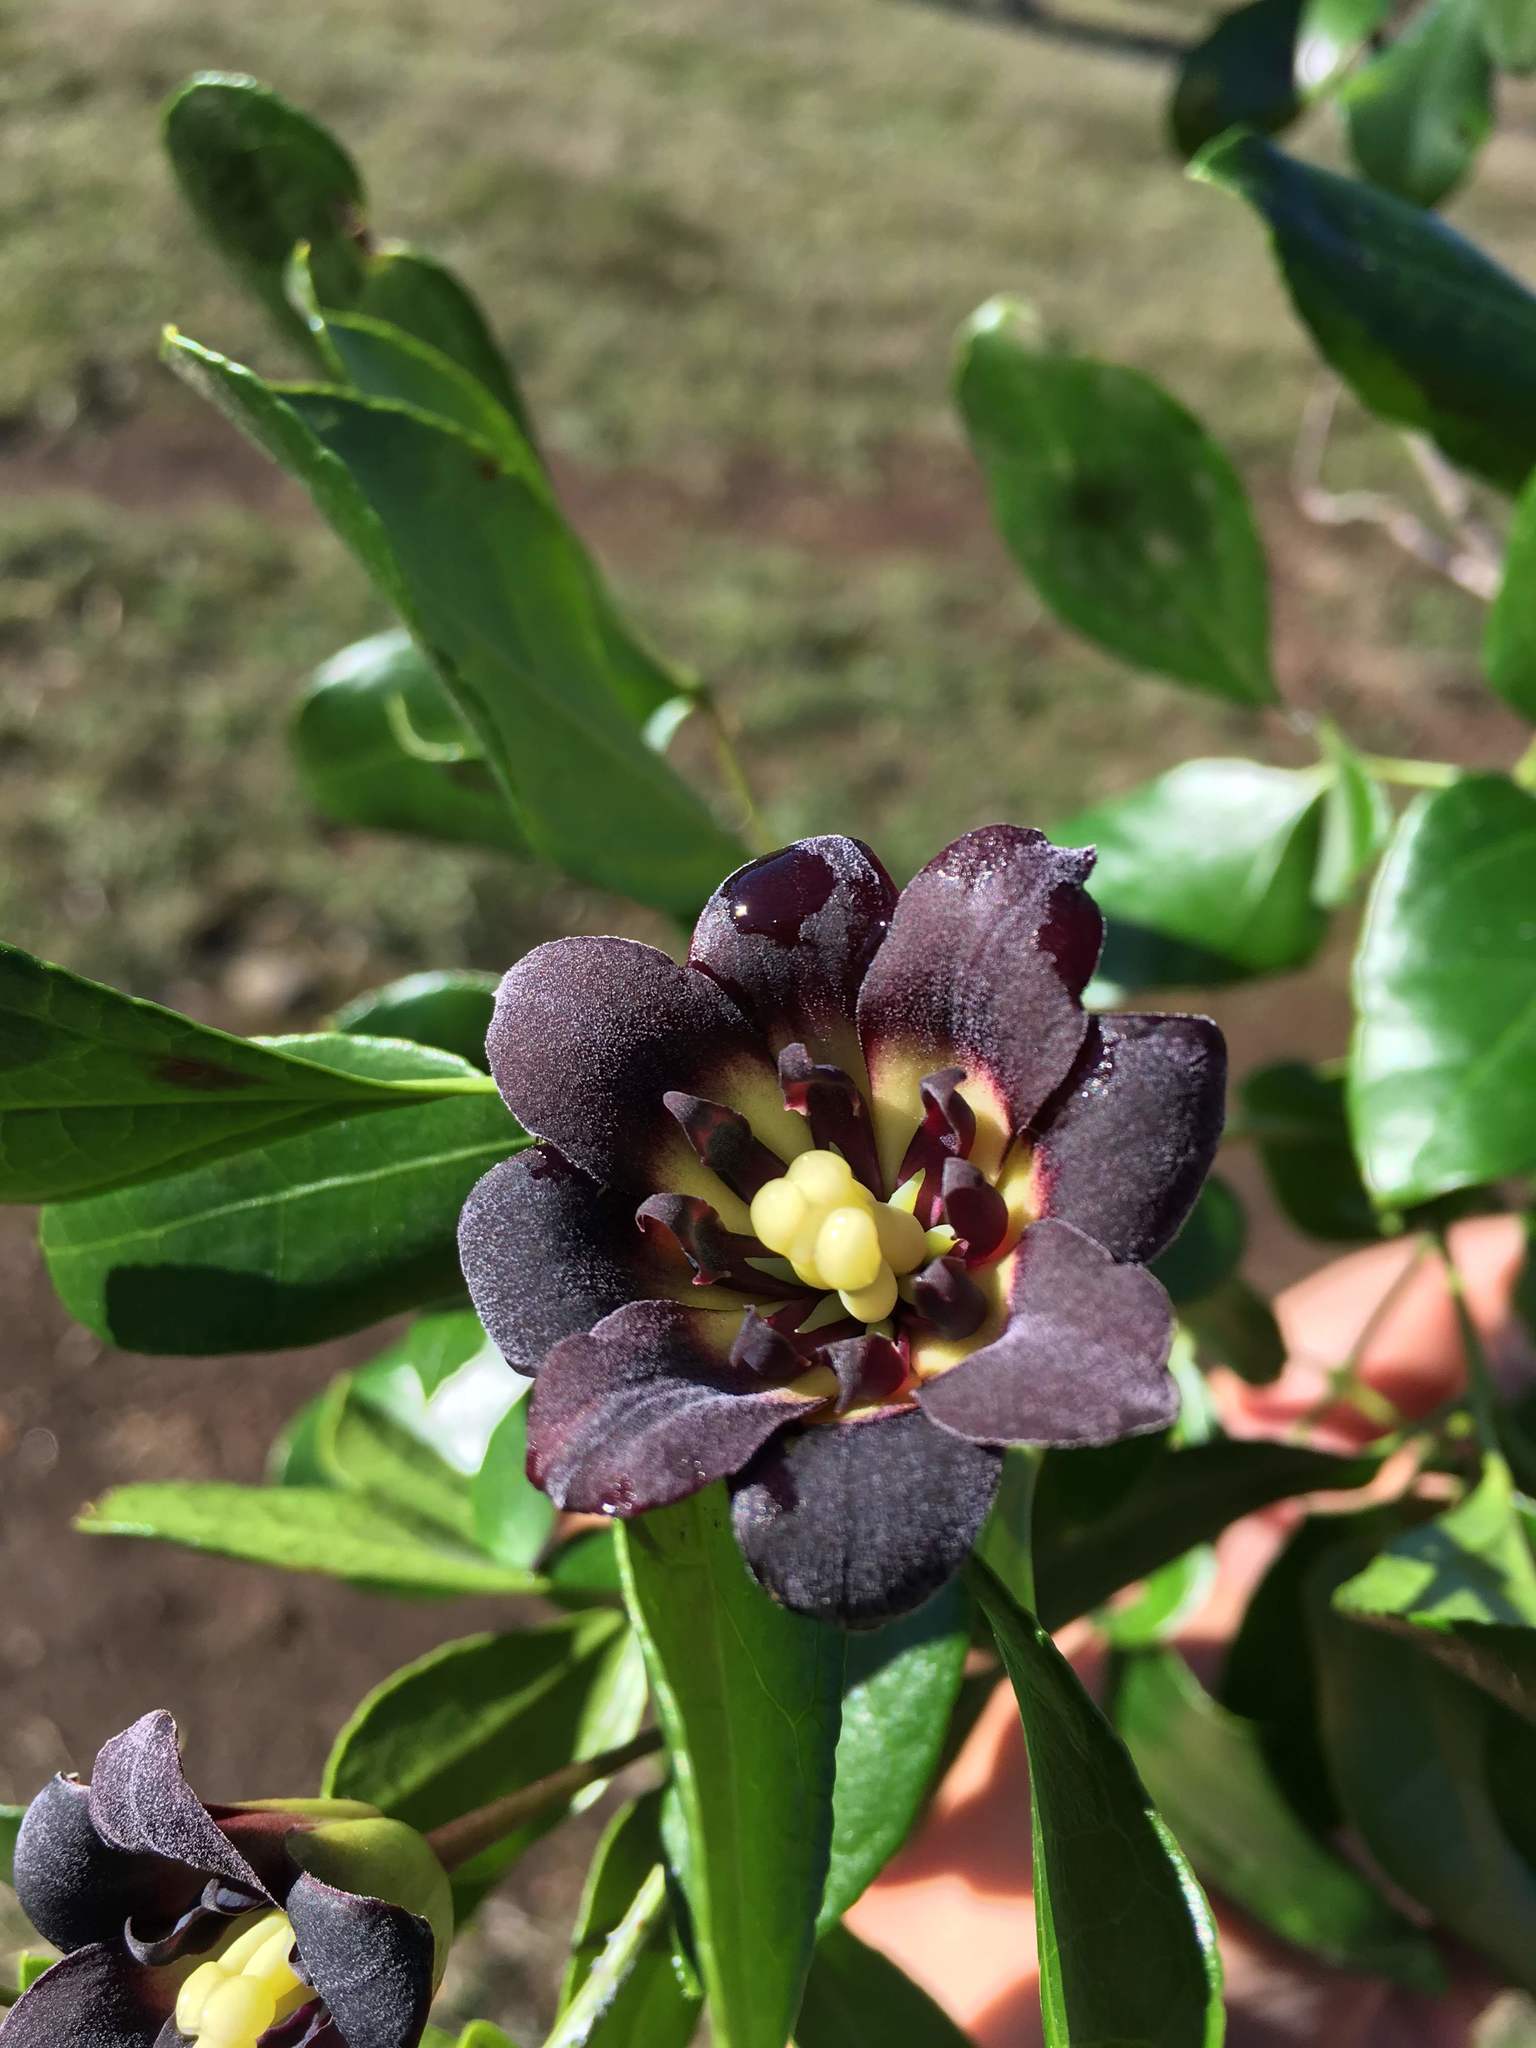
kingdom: Plantae
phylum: Tracheophyta
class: Magnoliopsida
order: Ranunculales
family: Lardizabalaceae
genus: Lardizabala
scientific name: Lardizabala funaria
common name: Zabala
